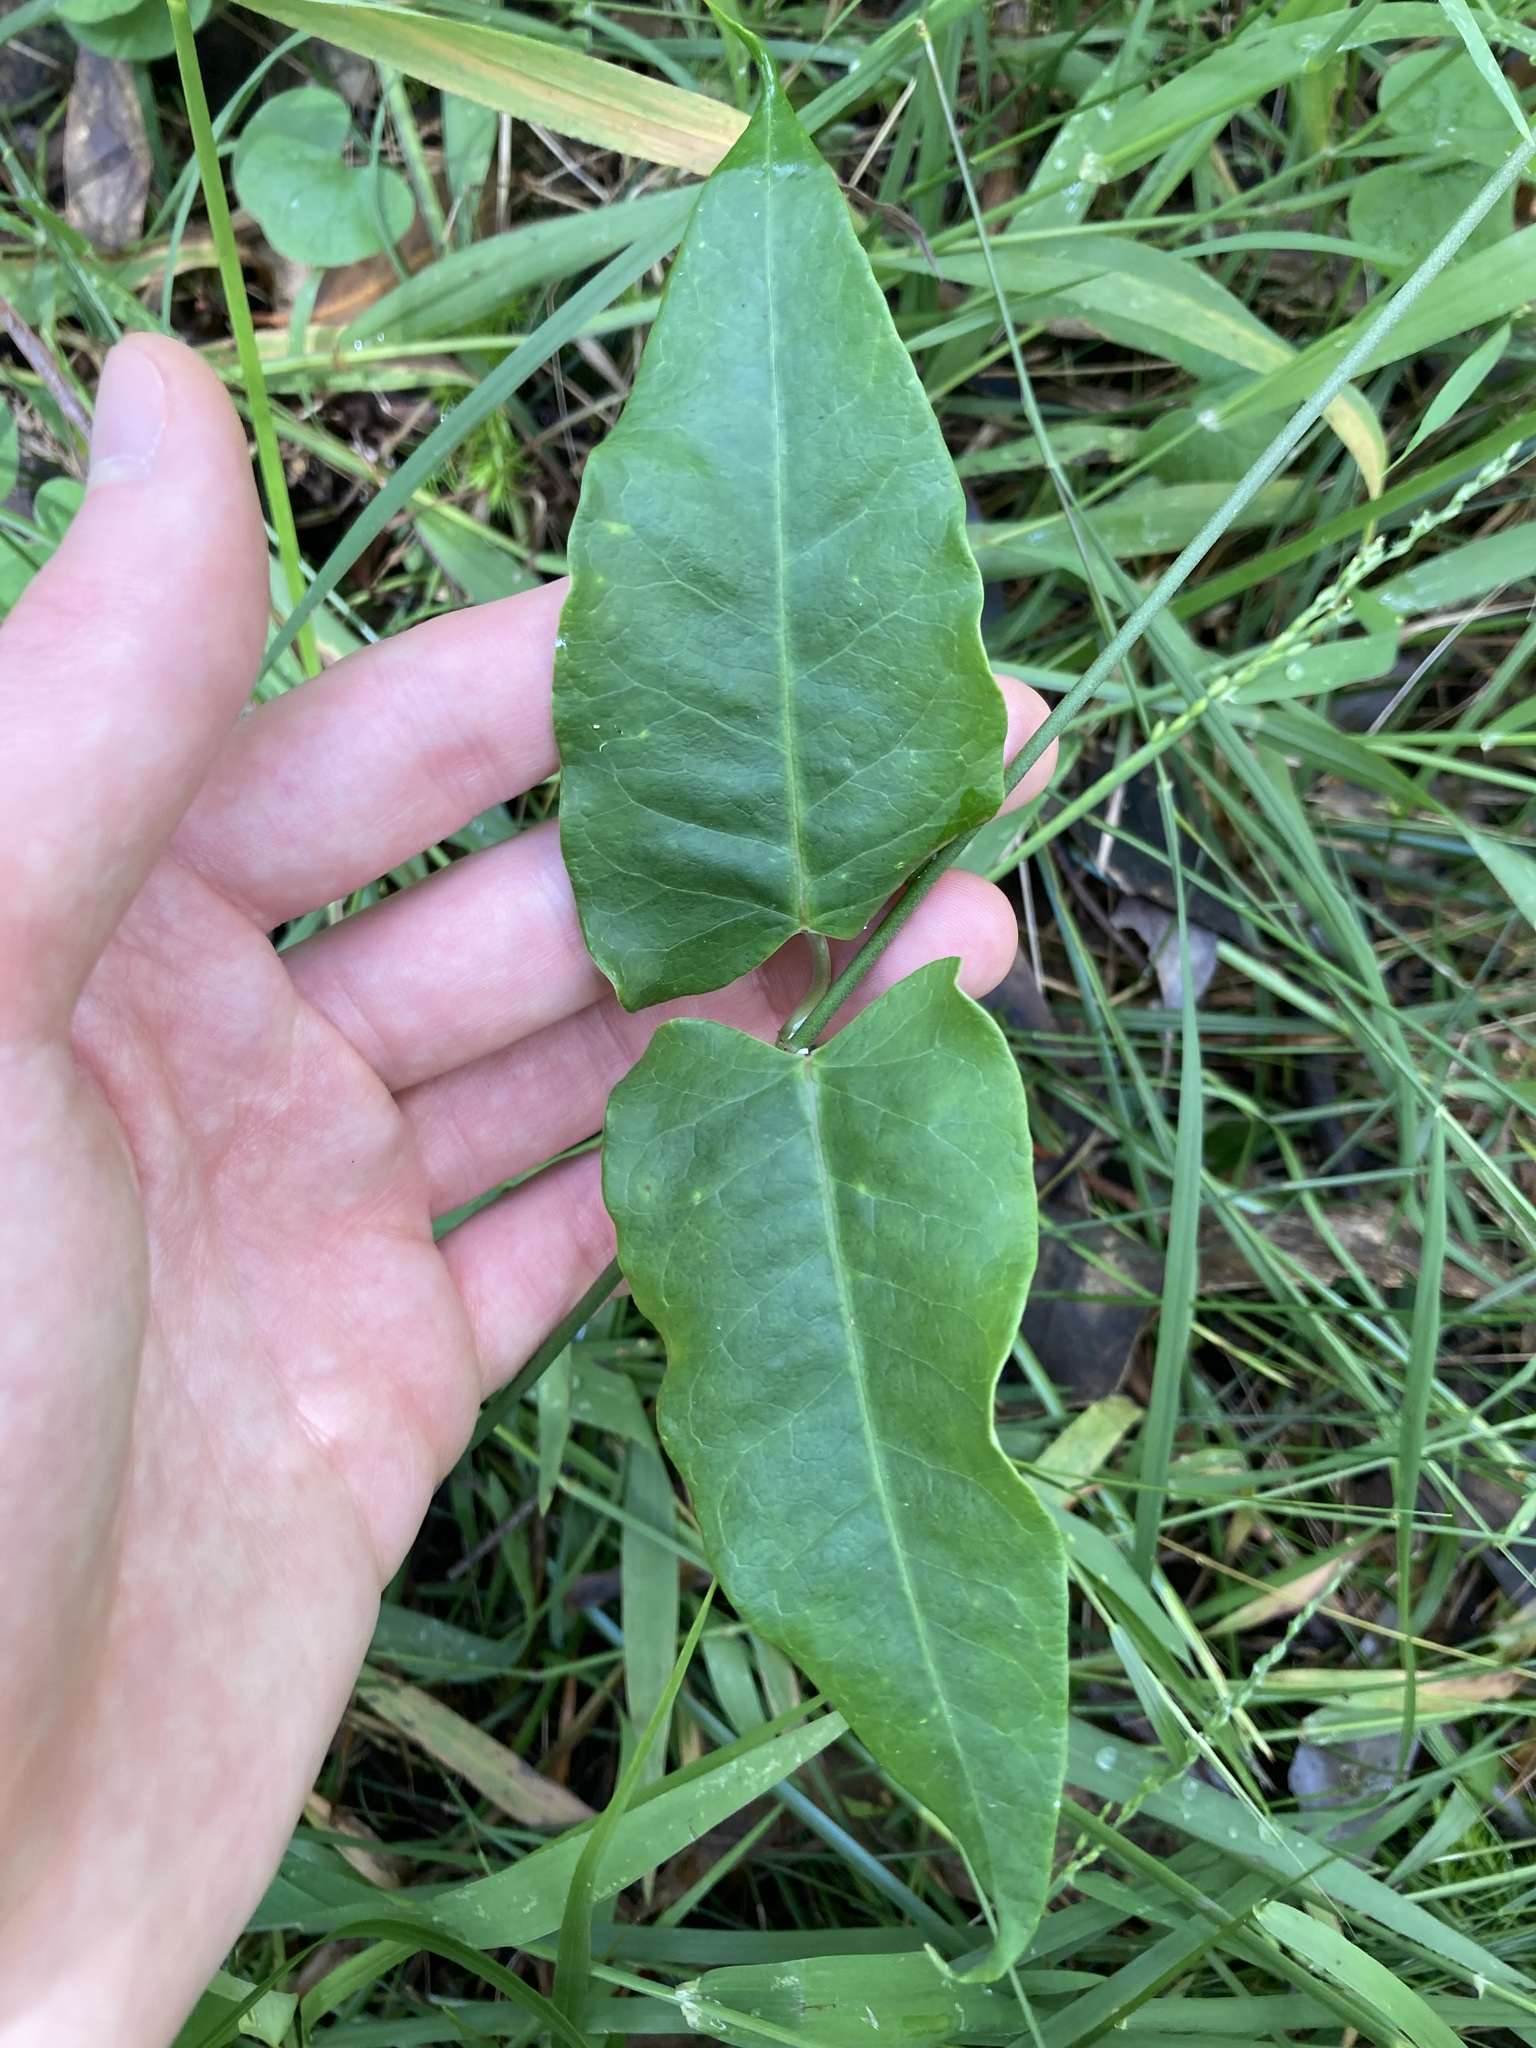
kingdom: Plantae
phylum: Tracheophyta
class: Magnoliopsida
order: Gentianales
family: Apocynaceae
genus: Araujia
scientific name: Araujia sericifera
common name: White bladderflower
